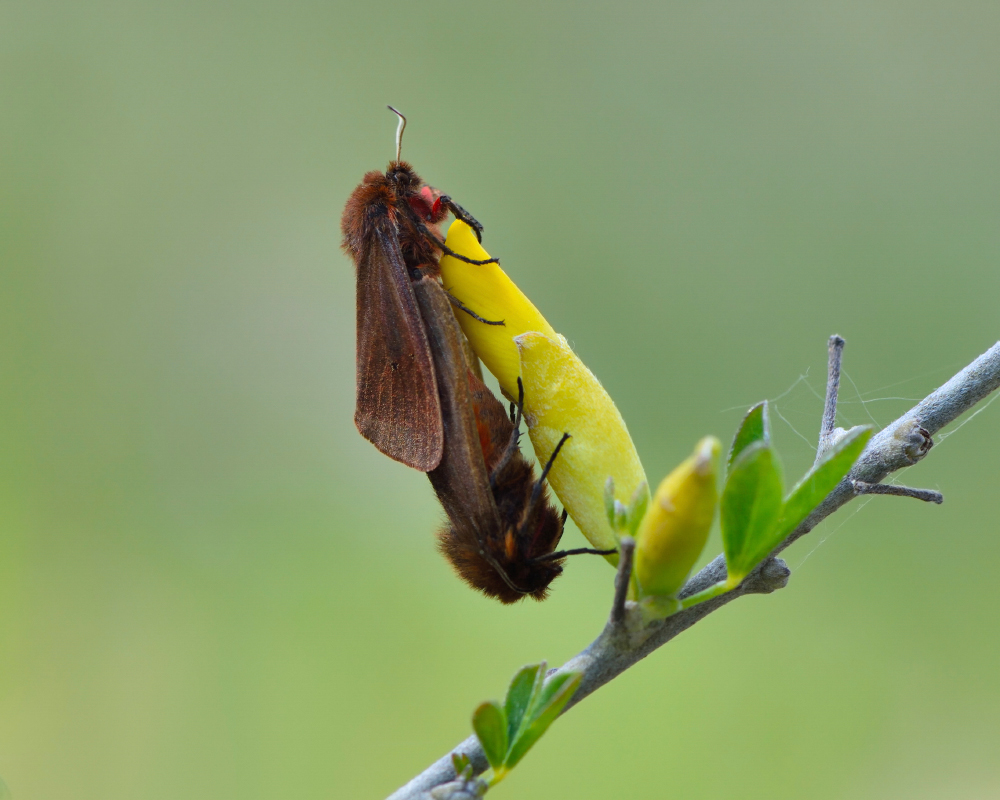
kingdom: Animalia
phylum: Arthropoda
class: Insecta
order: Lepidoptera
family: Erebidae
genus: Phragmatobia
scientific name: Phragmatobia fuliginosa
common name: Ruby tiger
